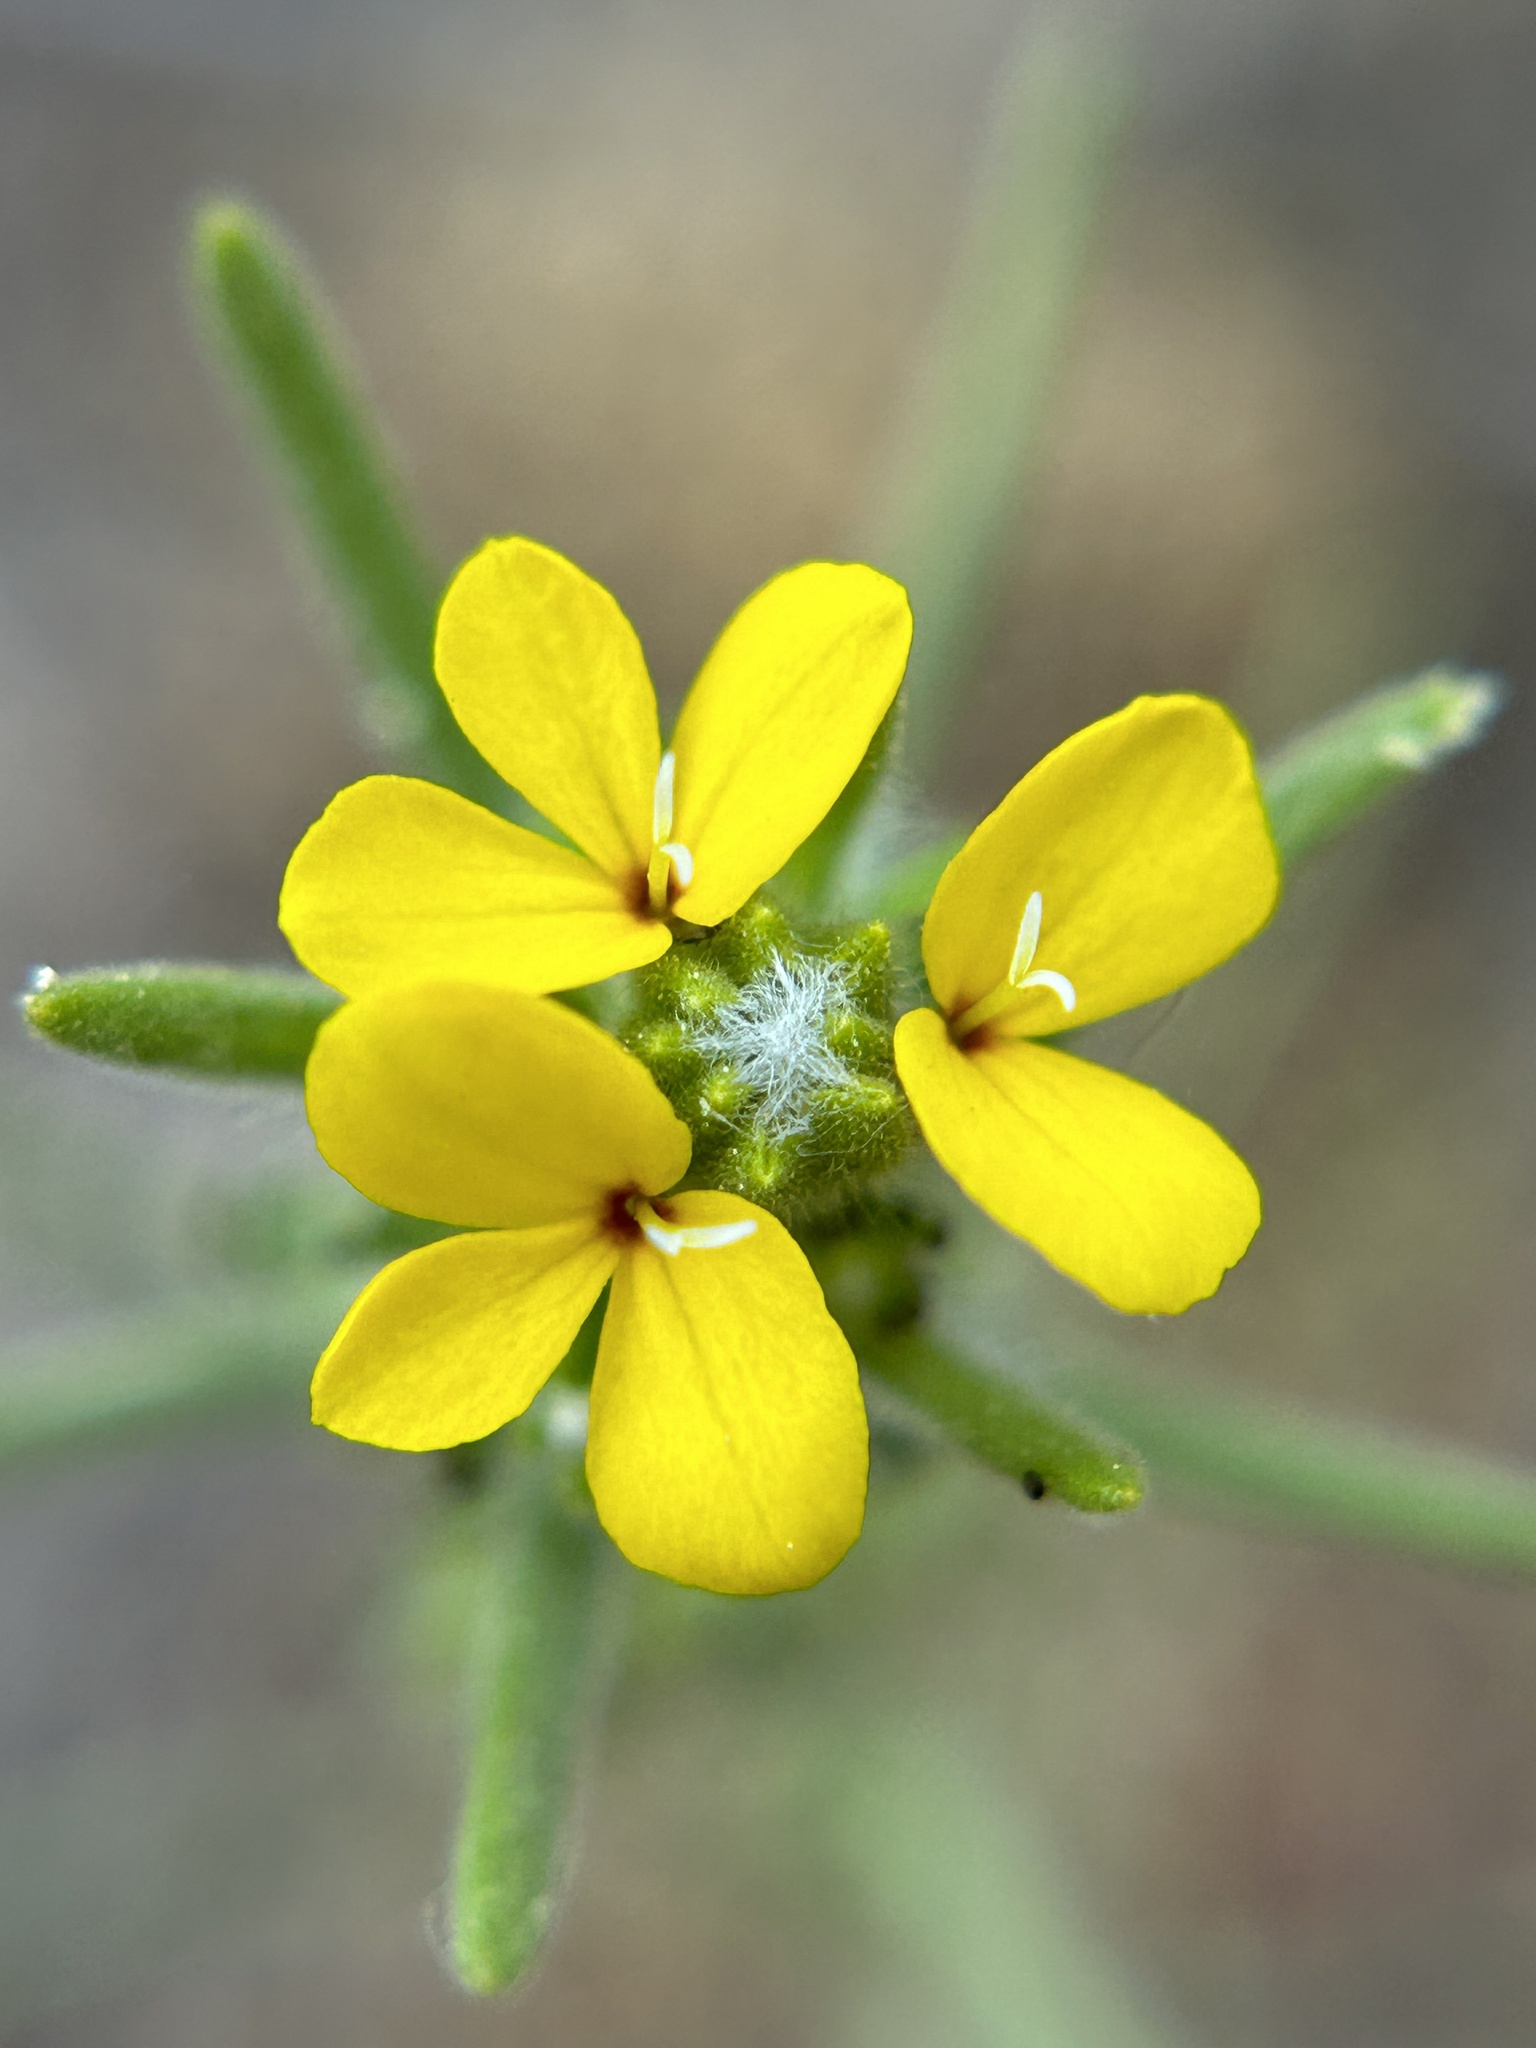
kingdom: Plantae
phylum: Tracheophyta
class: Magnoliopsida
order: Asterales
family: Asteraceae
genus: Calycadenia
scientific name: Calycadenia mollis
